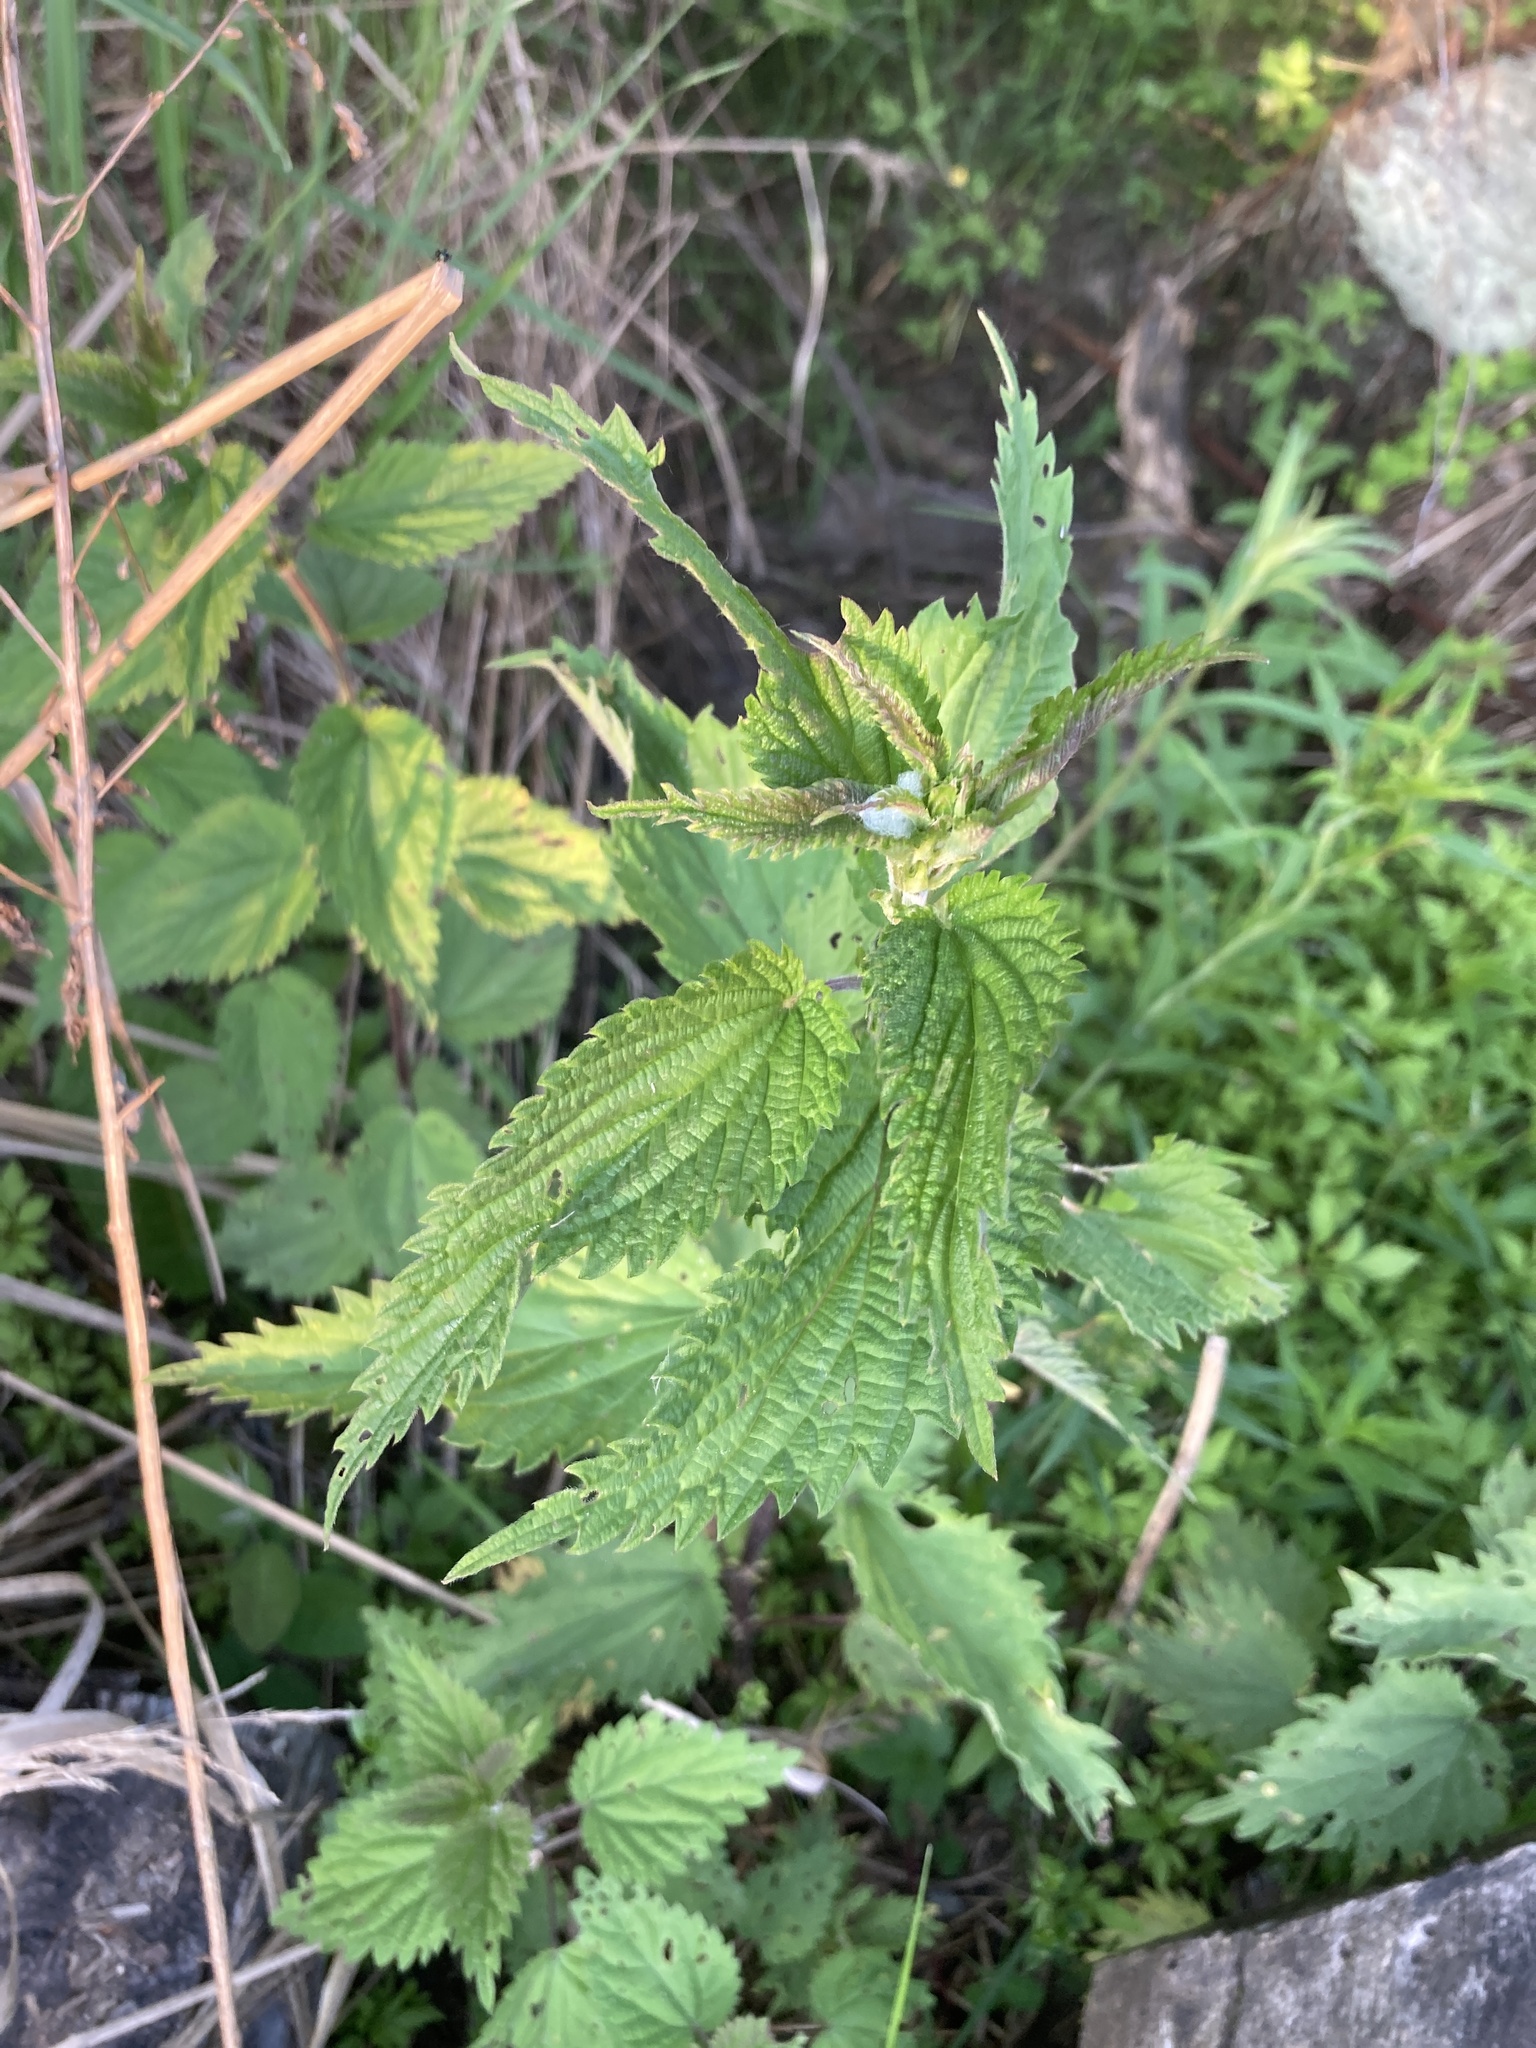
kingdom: Plantae
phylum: Tracheophyta
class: Magnoliopsida
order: Rosales
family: Urticaceae
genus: Urtica
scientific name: Urtica dioica
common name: Common nettle
